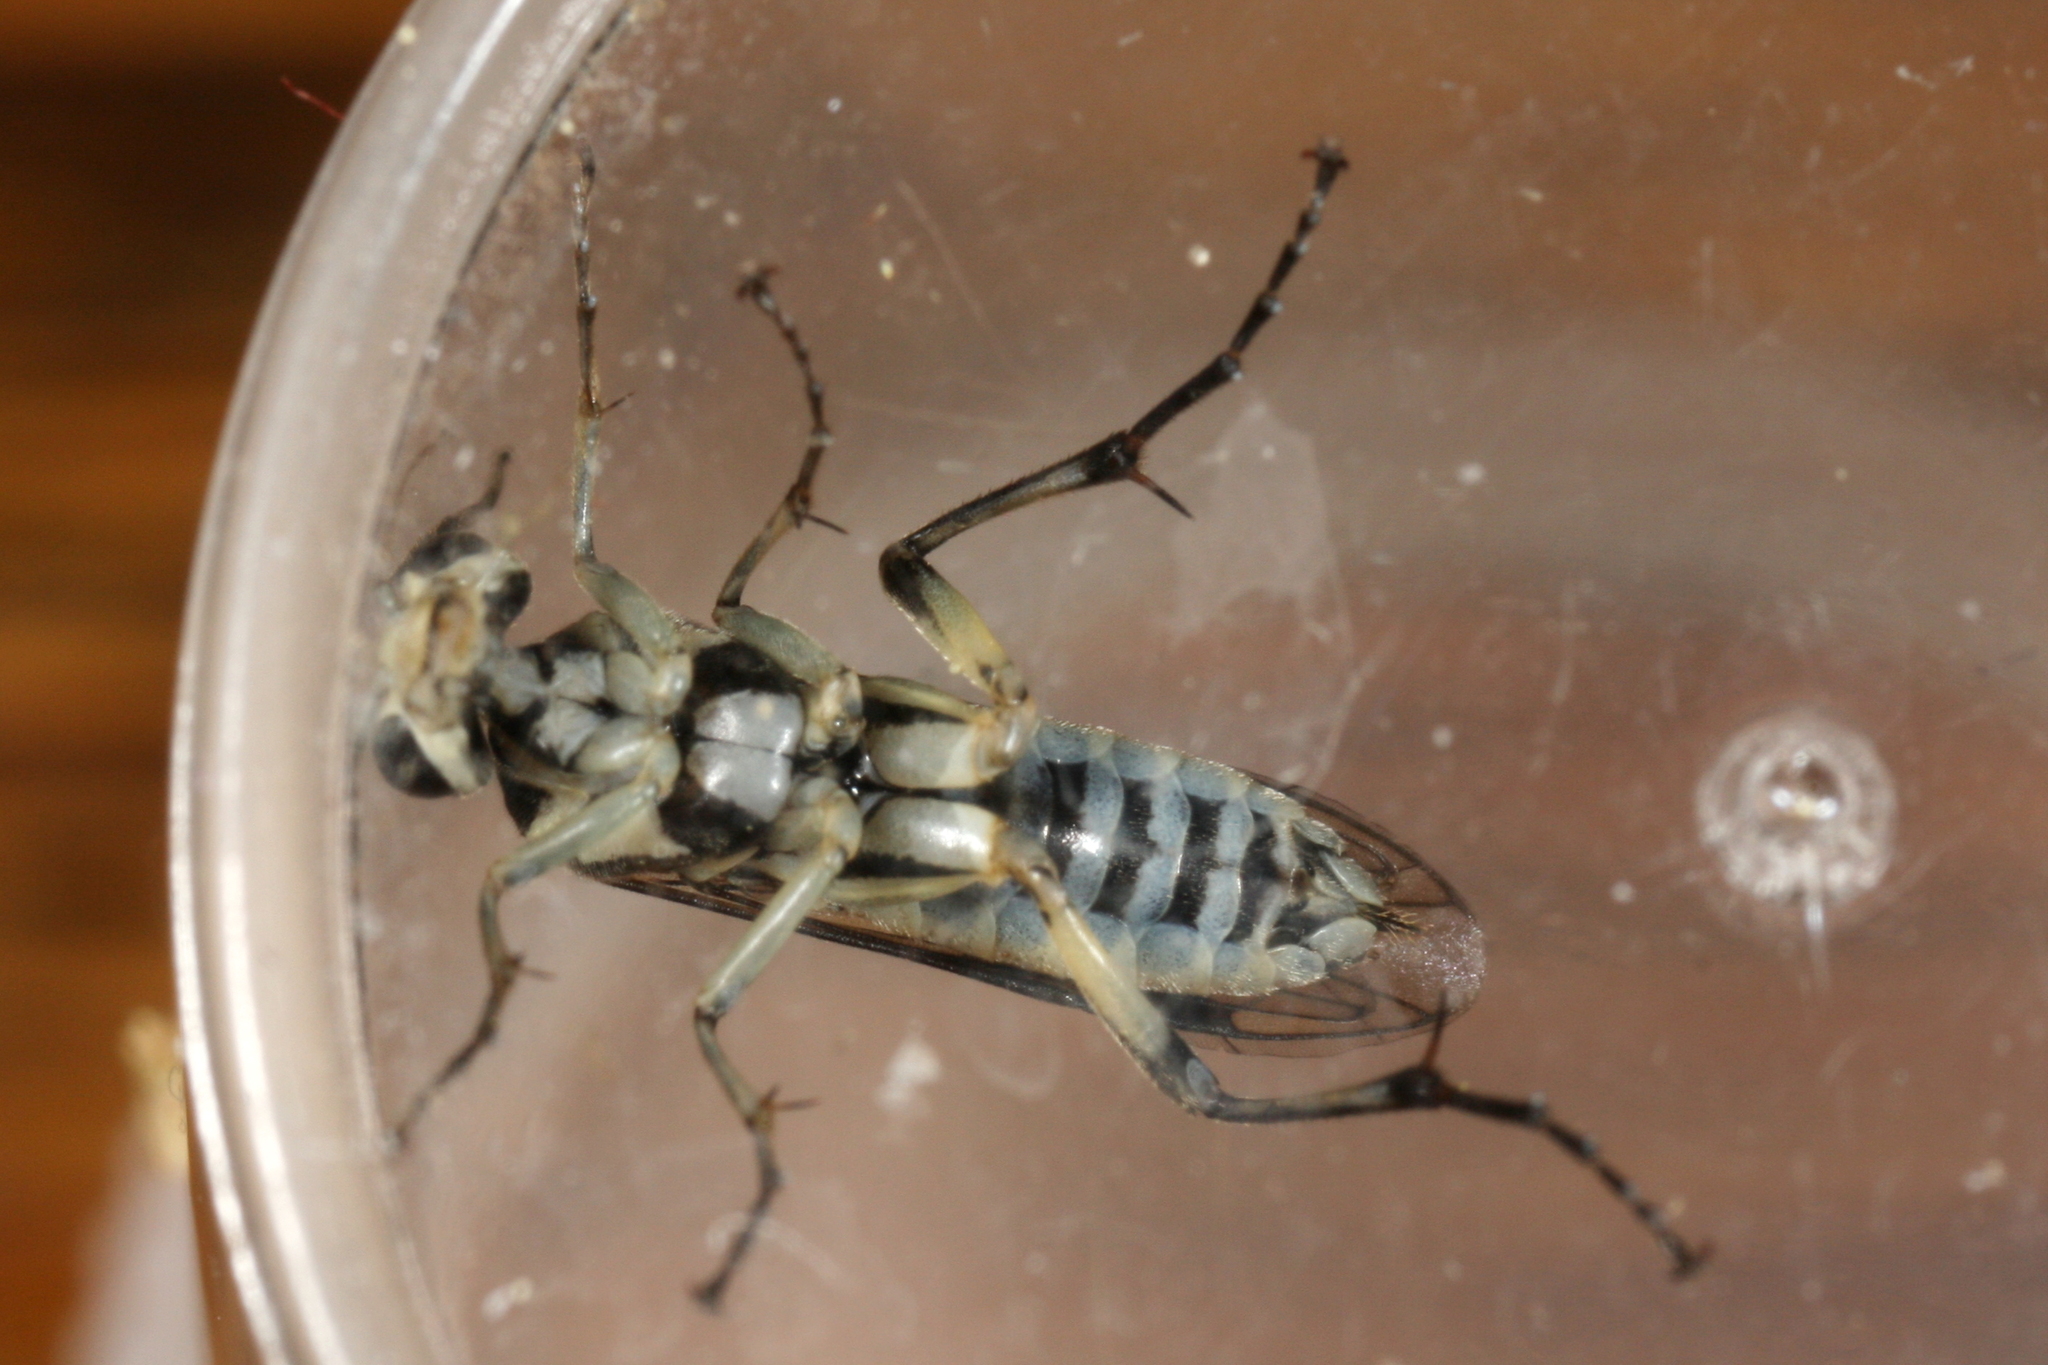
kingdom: Animalia
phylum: Arthropoda
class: Insecta
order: Hymenoptera
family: Tenthredinidae
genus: Pachyprotasis
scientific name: Pachyprotasis rapae
